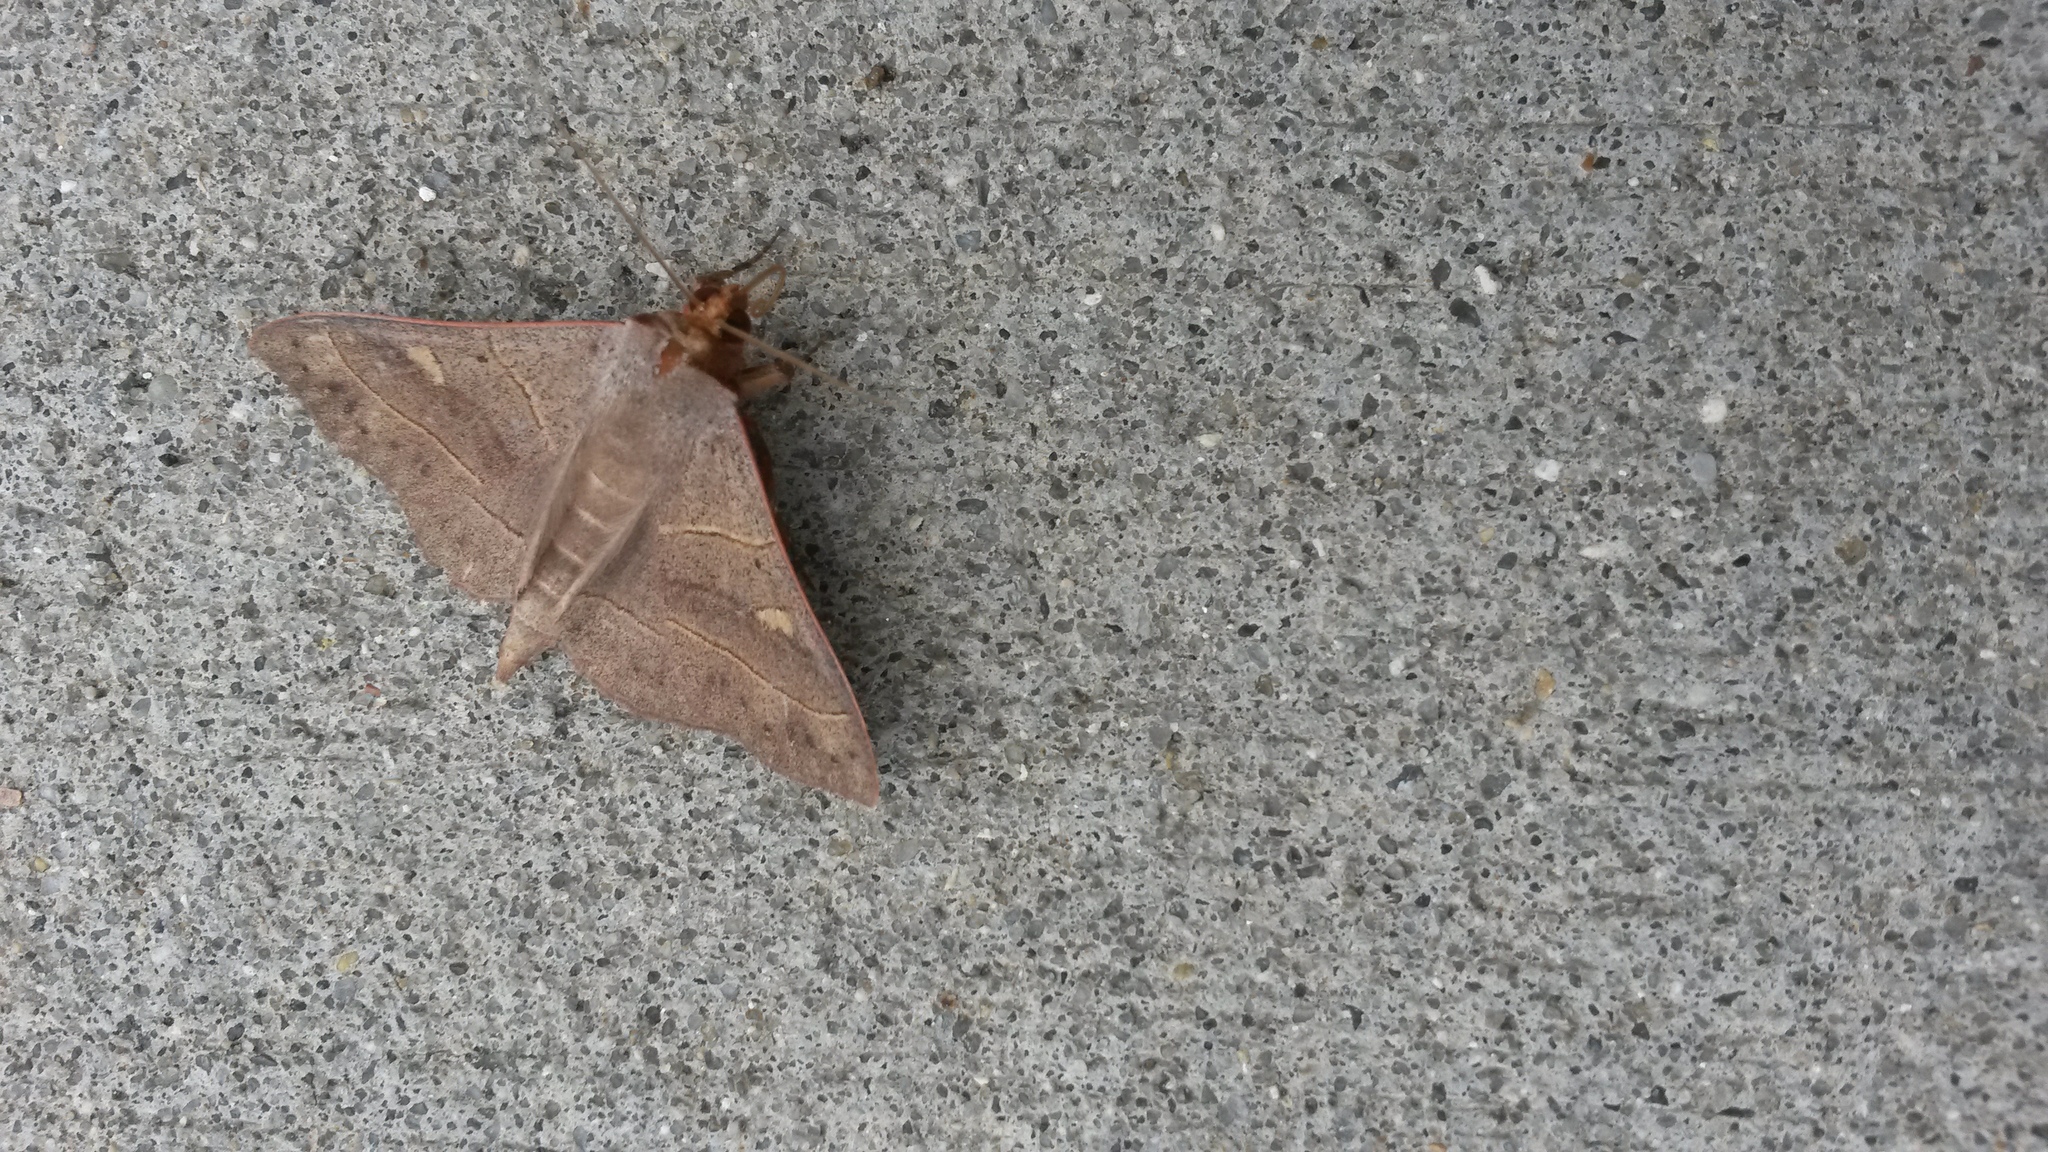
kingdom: Animalia
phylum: Arthropoda
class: Insecta
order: Lepidoptera
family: Erebidae
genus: Panopoda
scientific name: Panopoda rufimargo
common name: Red-lined panopoda moth
